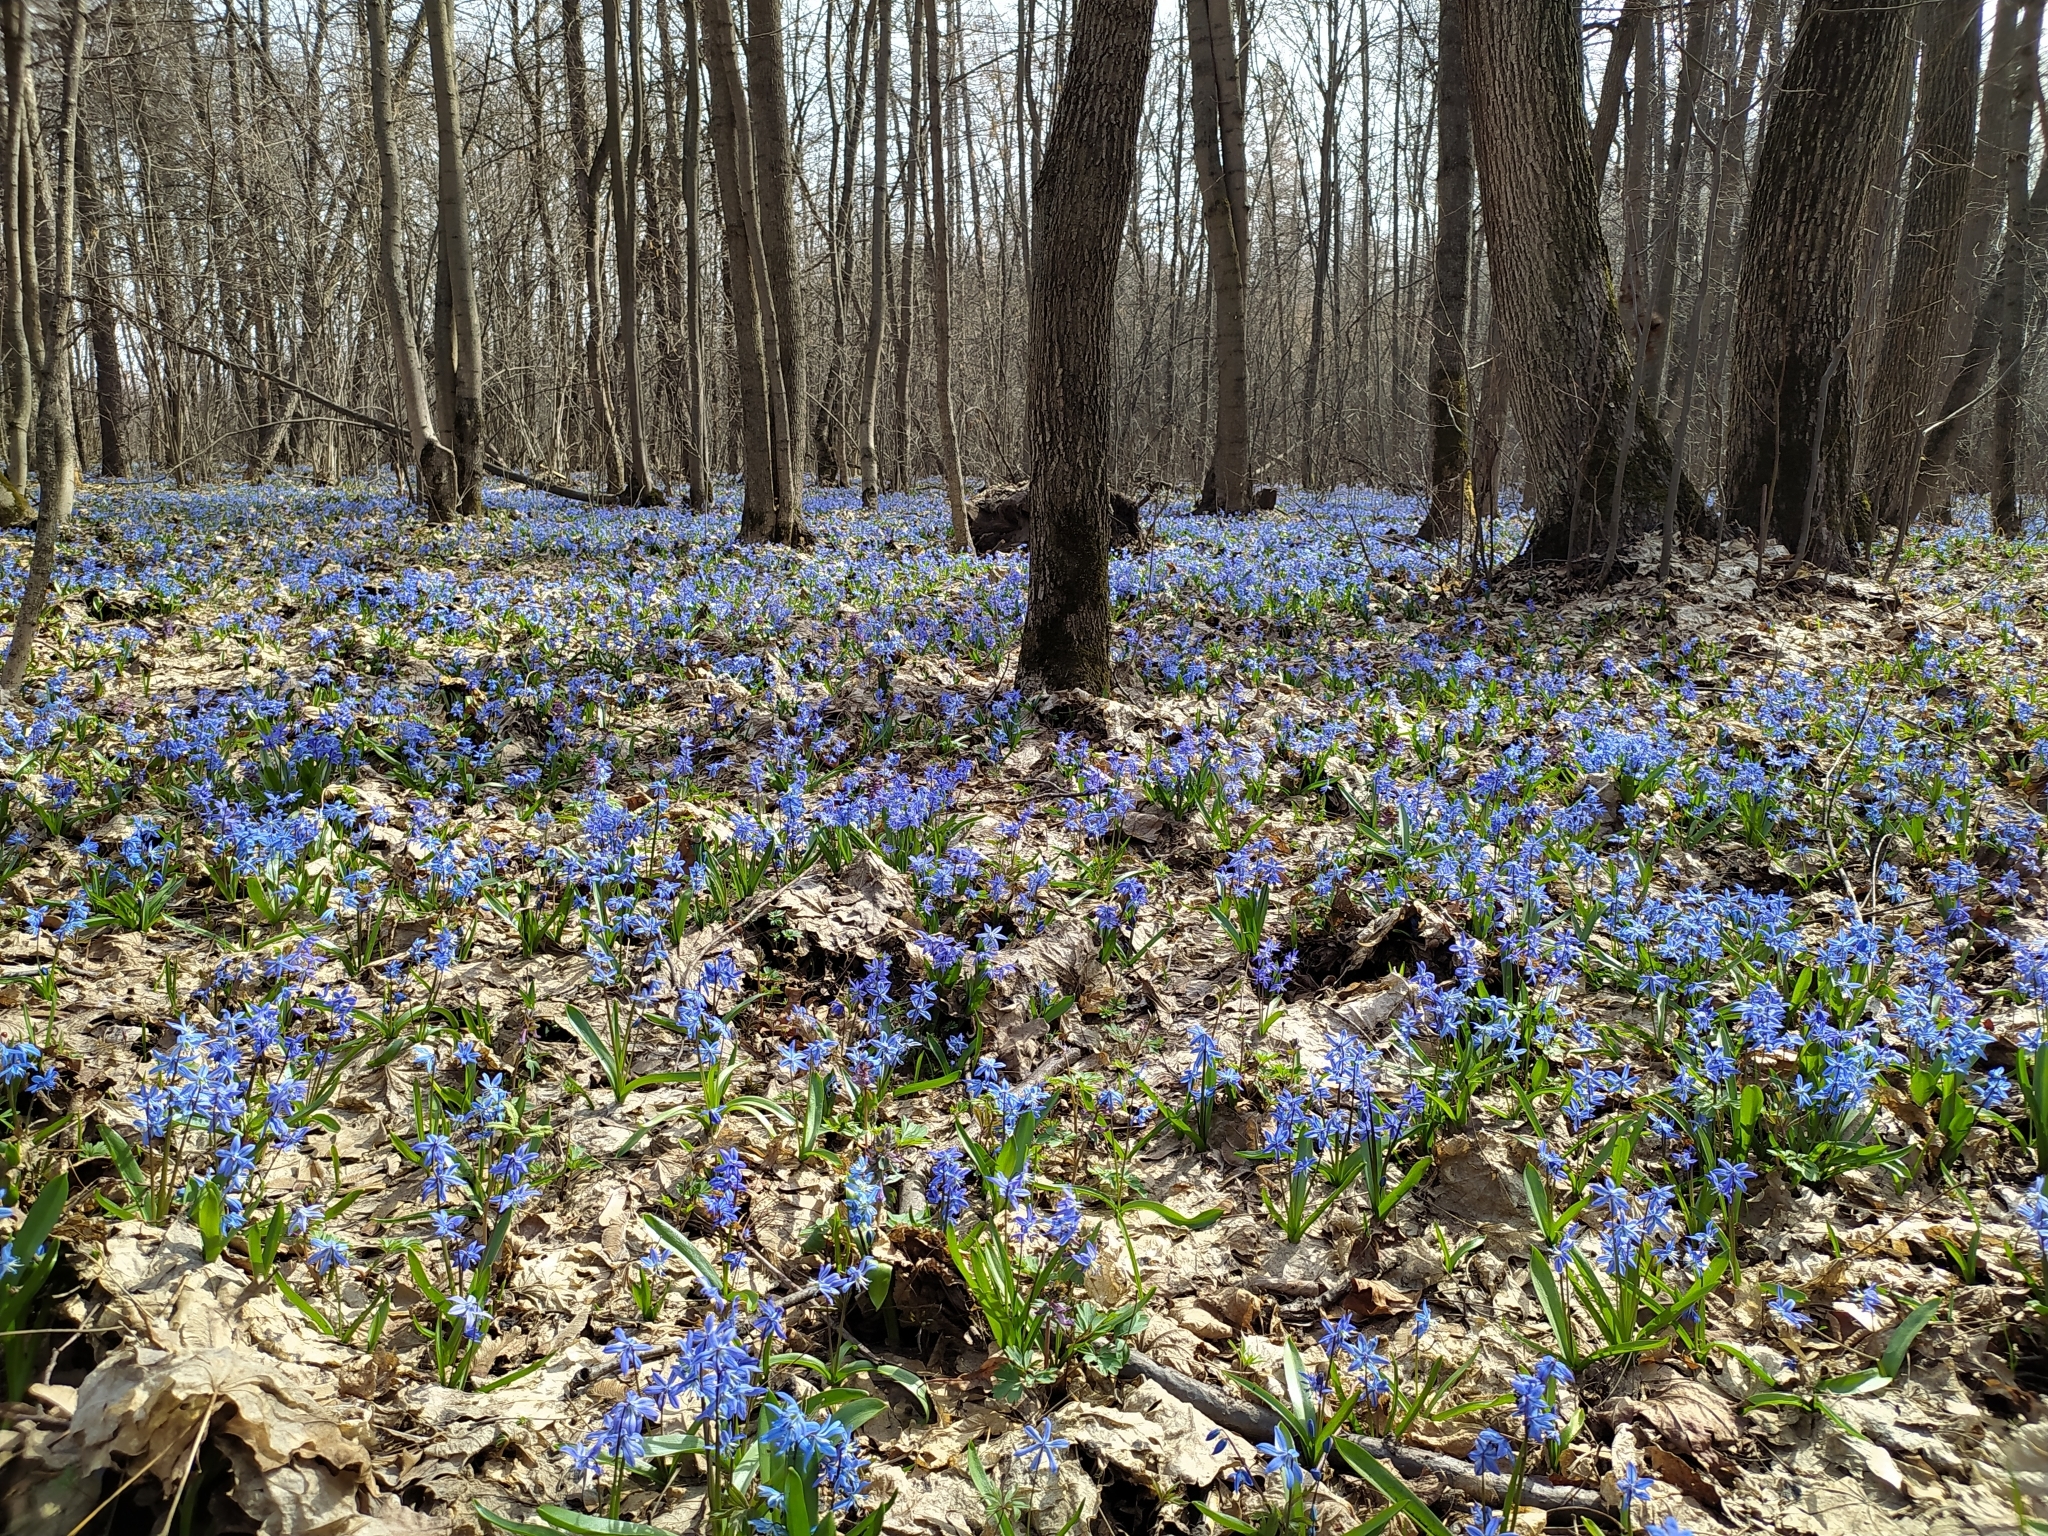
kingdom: Plantae
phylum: Tracheophyta
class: Liliopsida
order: Asparagales
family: Asparagaceae
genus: Scilla
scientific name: Scilla siberica
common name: Siberian squill
